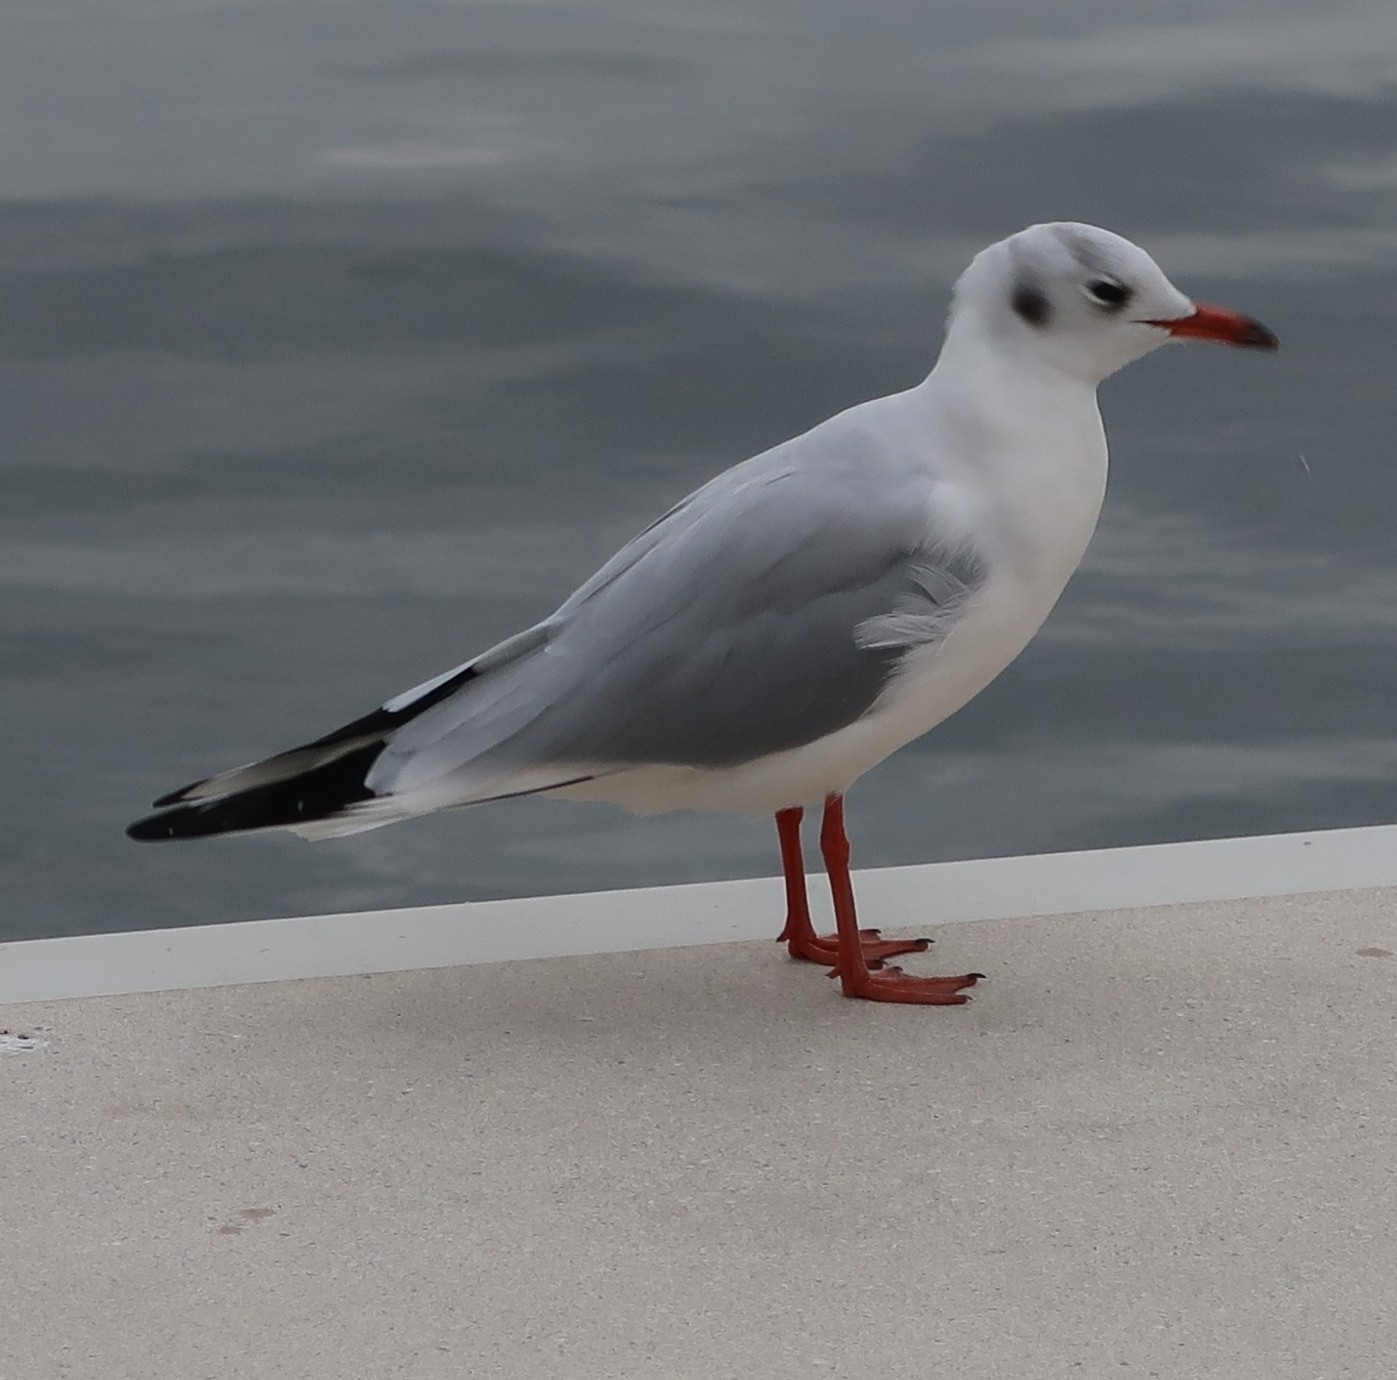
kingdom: Animalia
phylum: Chordata
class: Aves
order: Charadriiformes
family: Laridae
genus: Chroicocephalus
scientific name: Chroicocephalus ridibundus
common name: Black-headed gull
